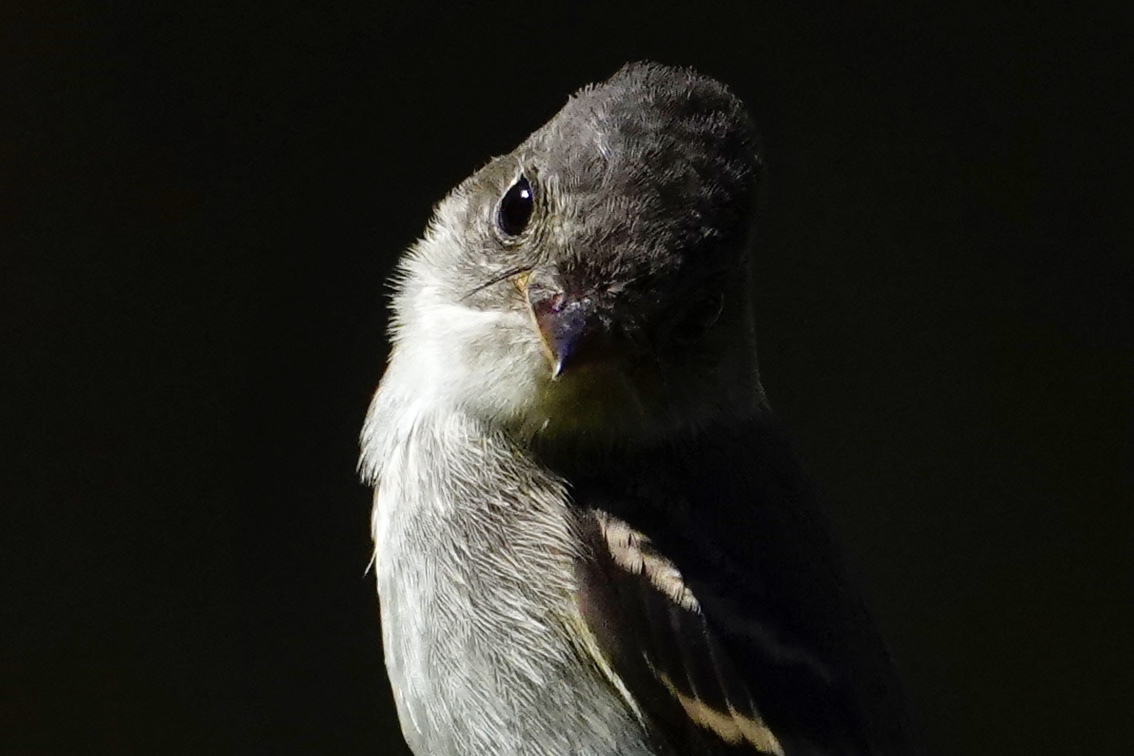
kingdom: Animalia
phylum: Chordata
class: Aves
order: Passeriformes
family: Tyrannidae
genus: Contopus
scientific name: Contopus virens
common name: Eastern wood-pewee
